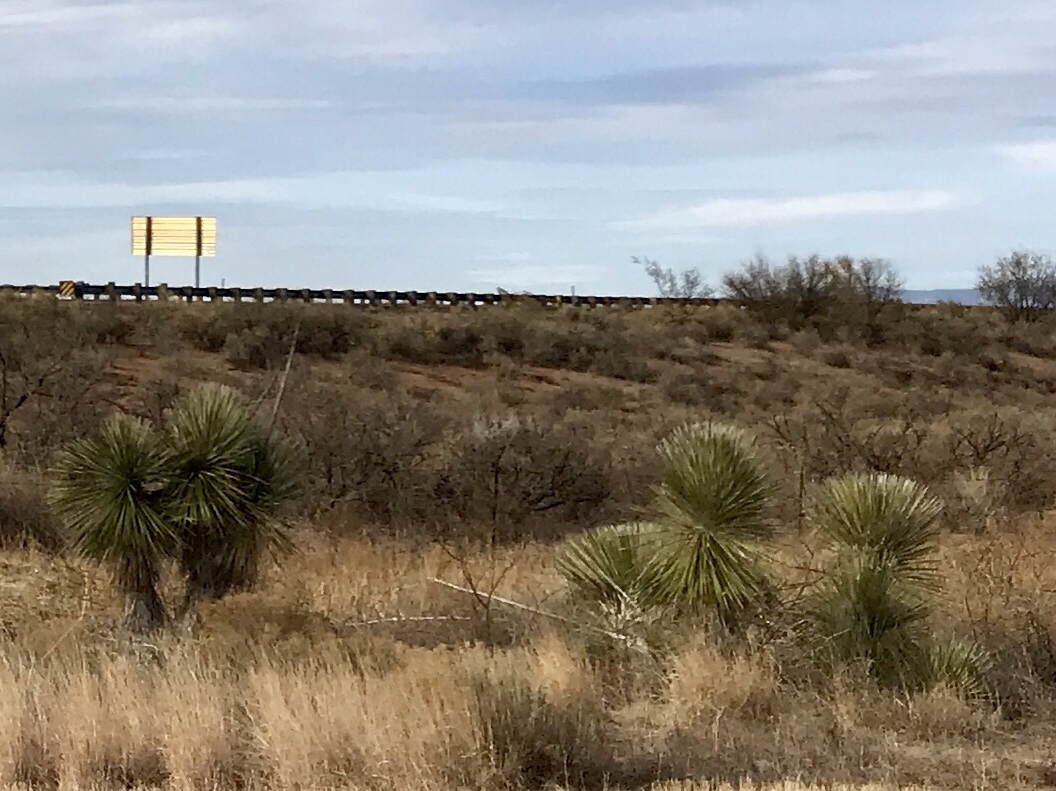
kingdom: Plantae
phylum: Tracheophyta
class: Liliopsida
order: Asparagales
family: Asparagaceae
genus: Yucca
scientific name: Yucca elata
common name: Palmella
